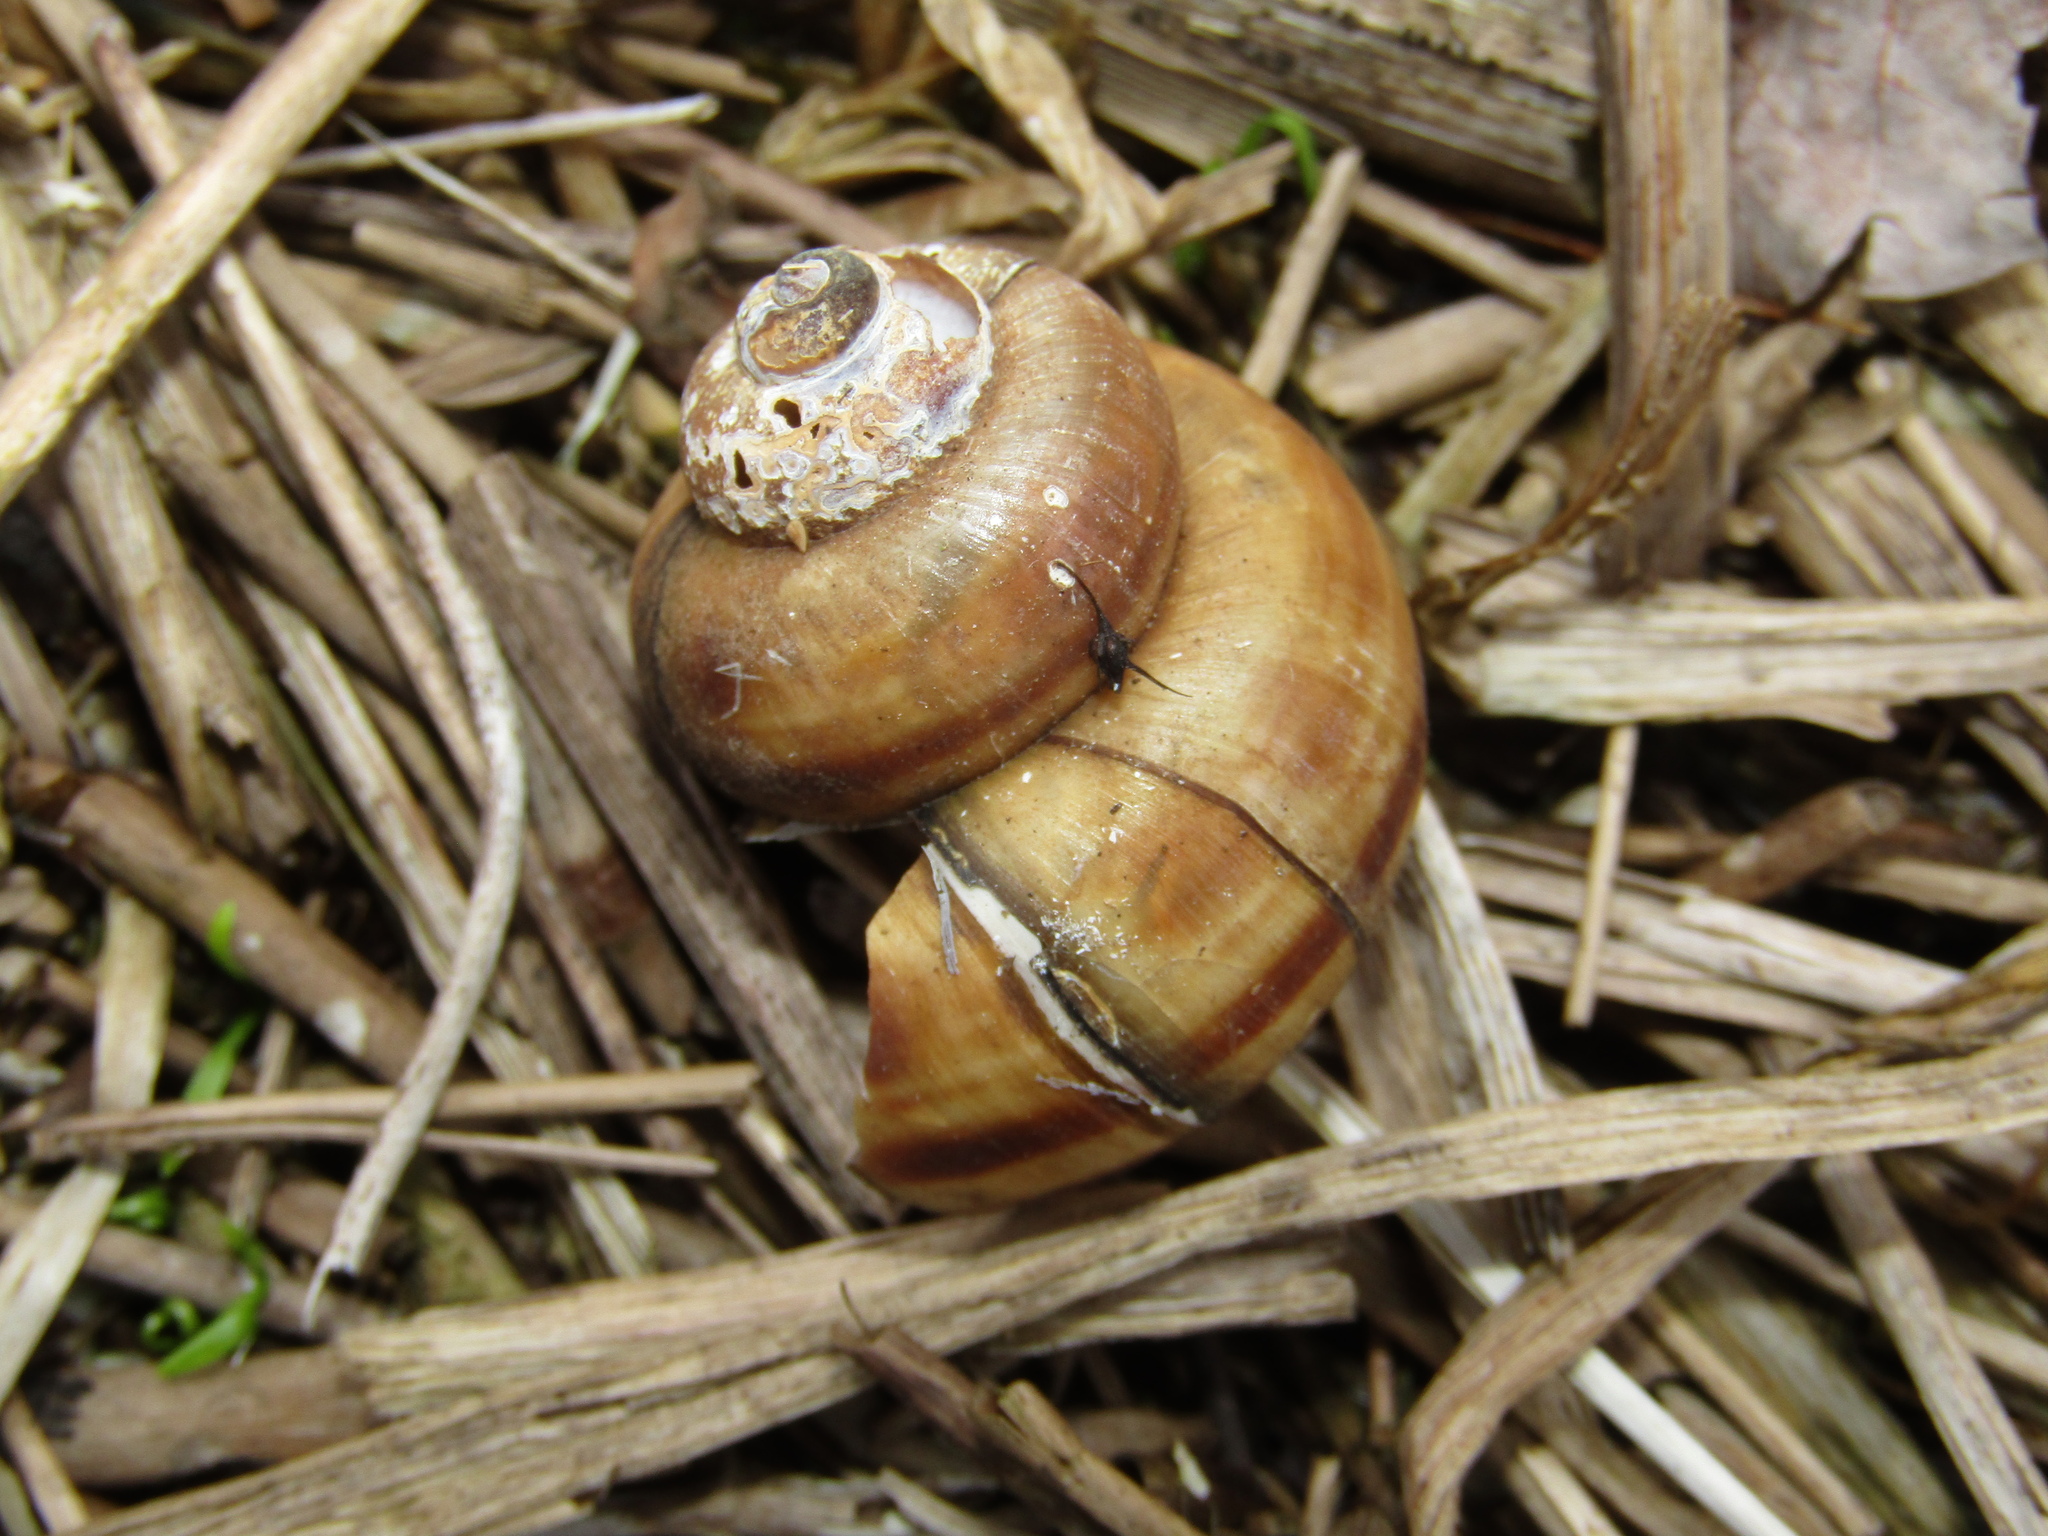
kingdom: Animalia
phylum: Mollusca
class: Gastropoda
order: Architaenioglossa
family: Viviparidae
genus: Viviparus
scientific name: Viviparus contectus
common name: Lister's river snail
